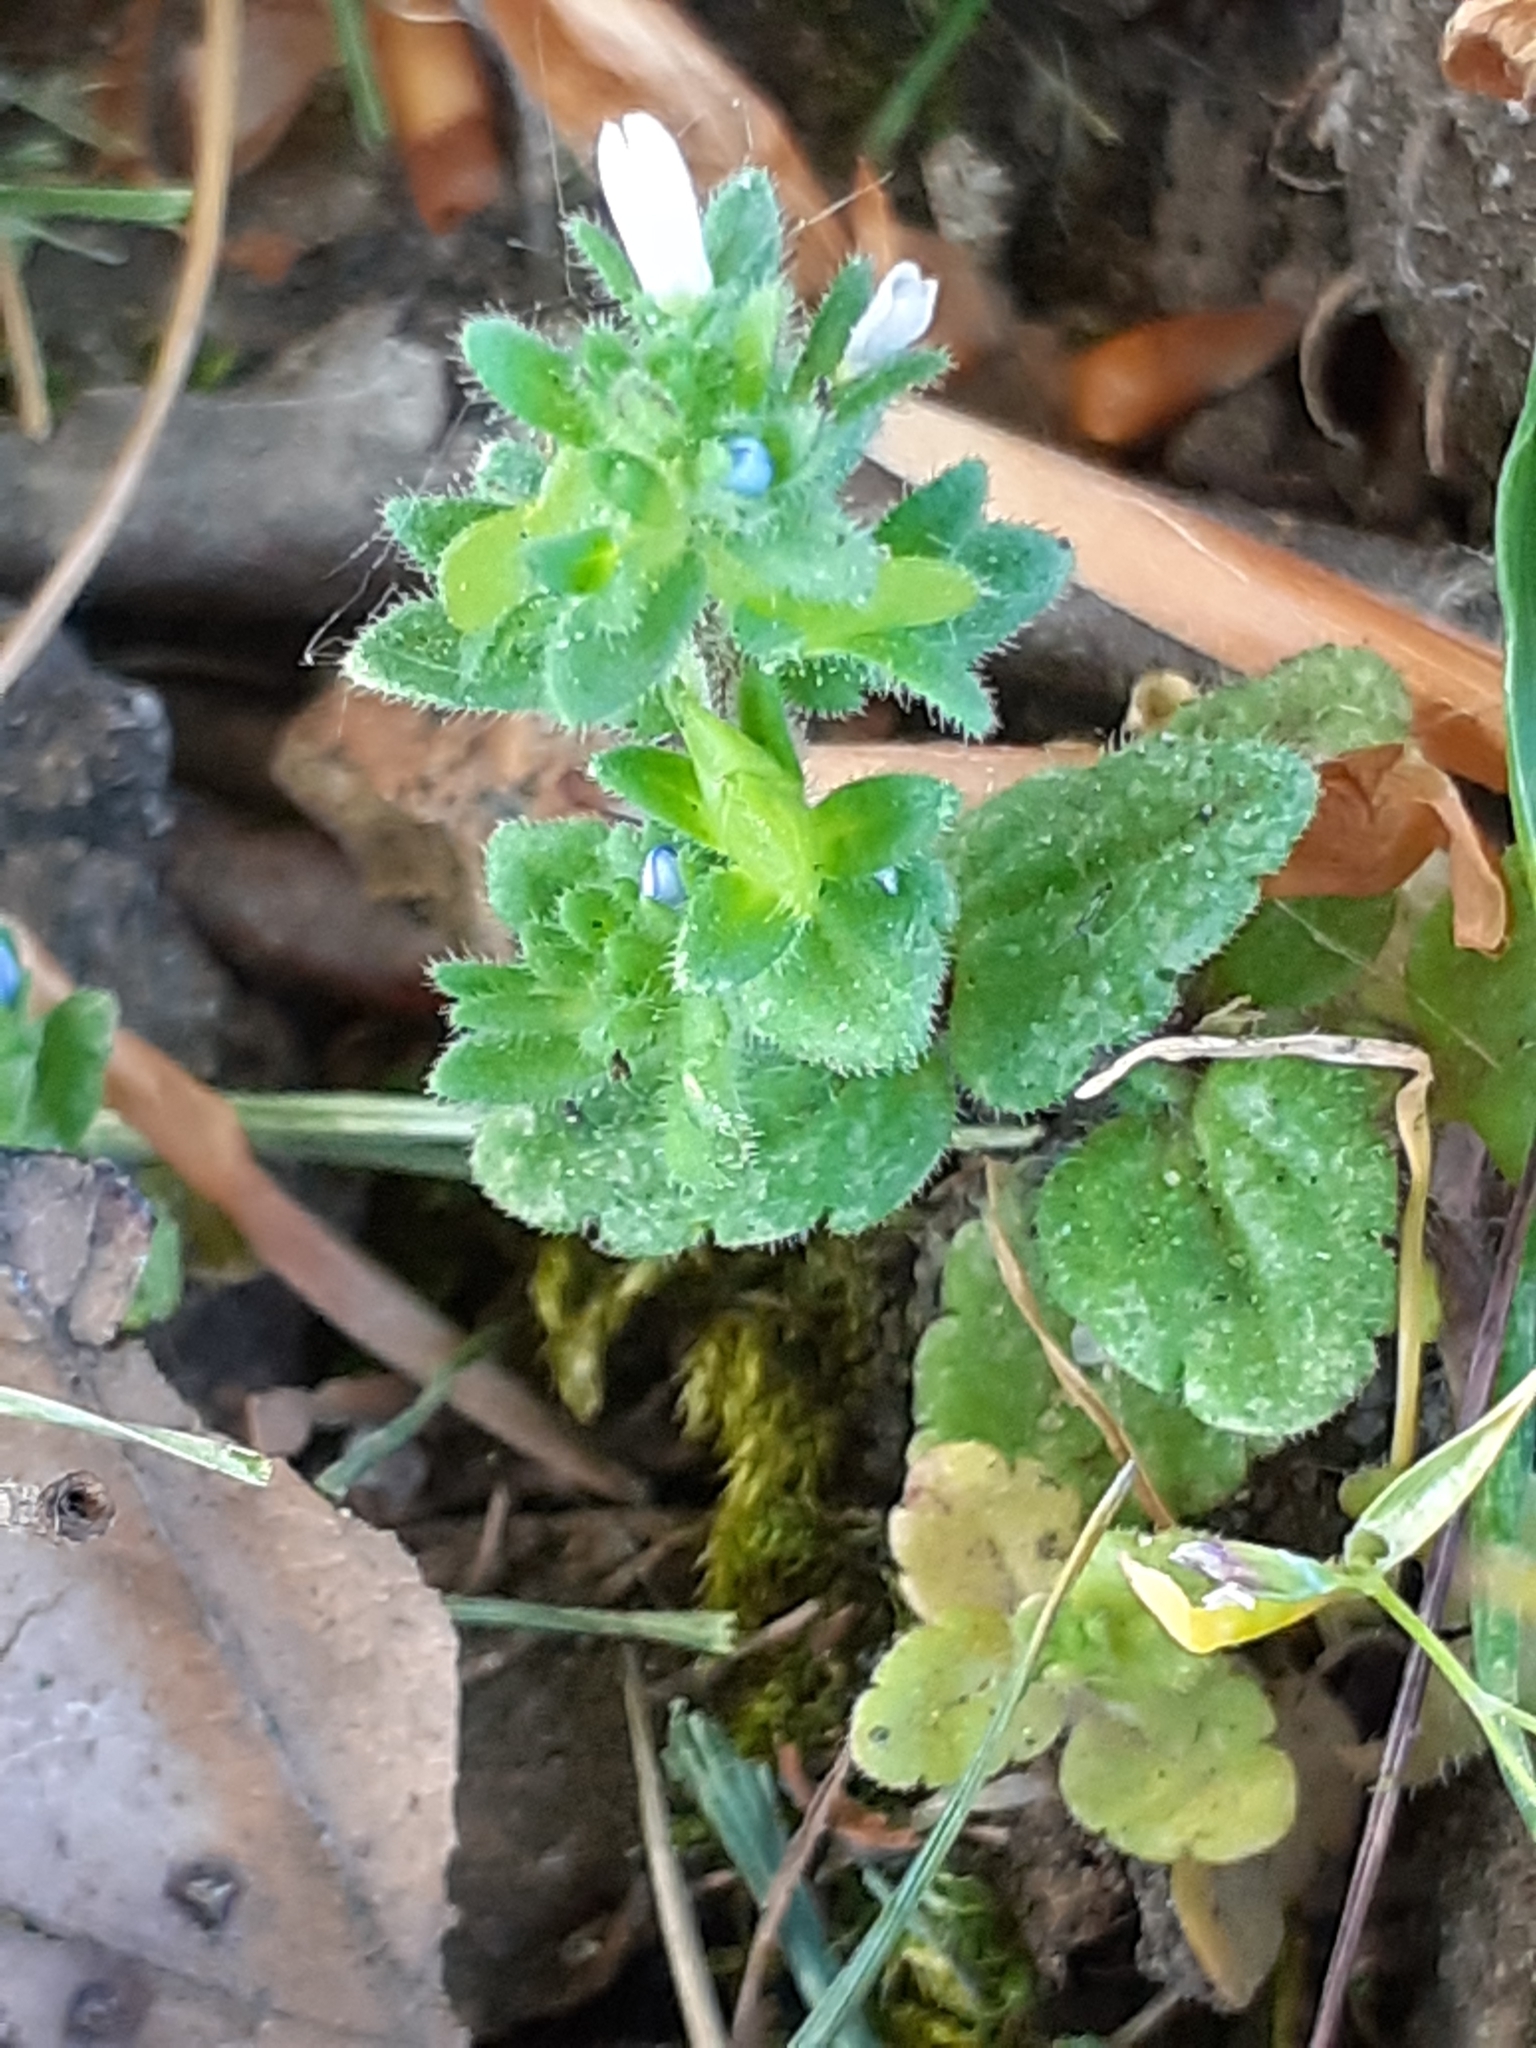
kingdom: Plantae
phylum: Tracheophyta
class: Magnoliopsida
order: Lamiales
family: Plantaginaceae
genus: Veronica
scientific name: Veronica arvensis
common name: Corn speedwell
